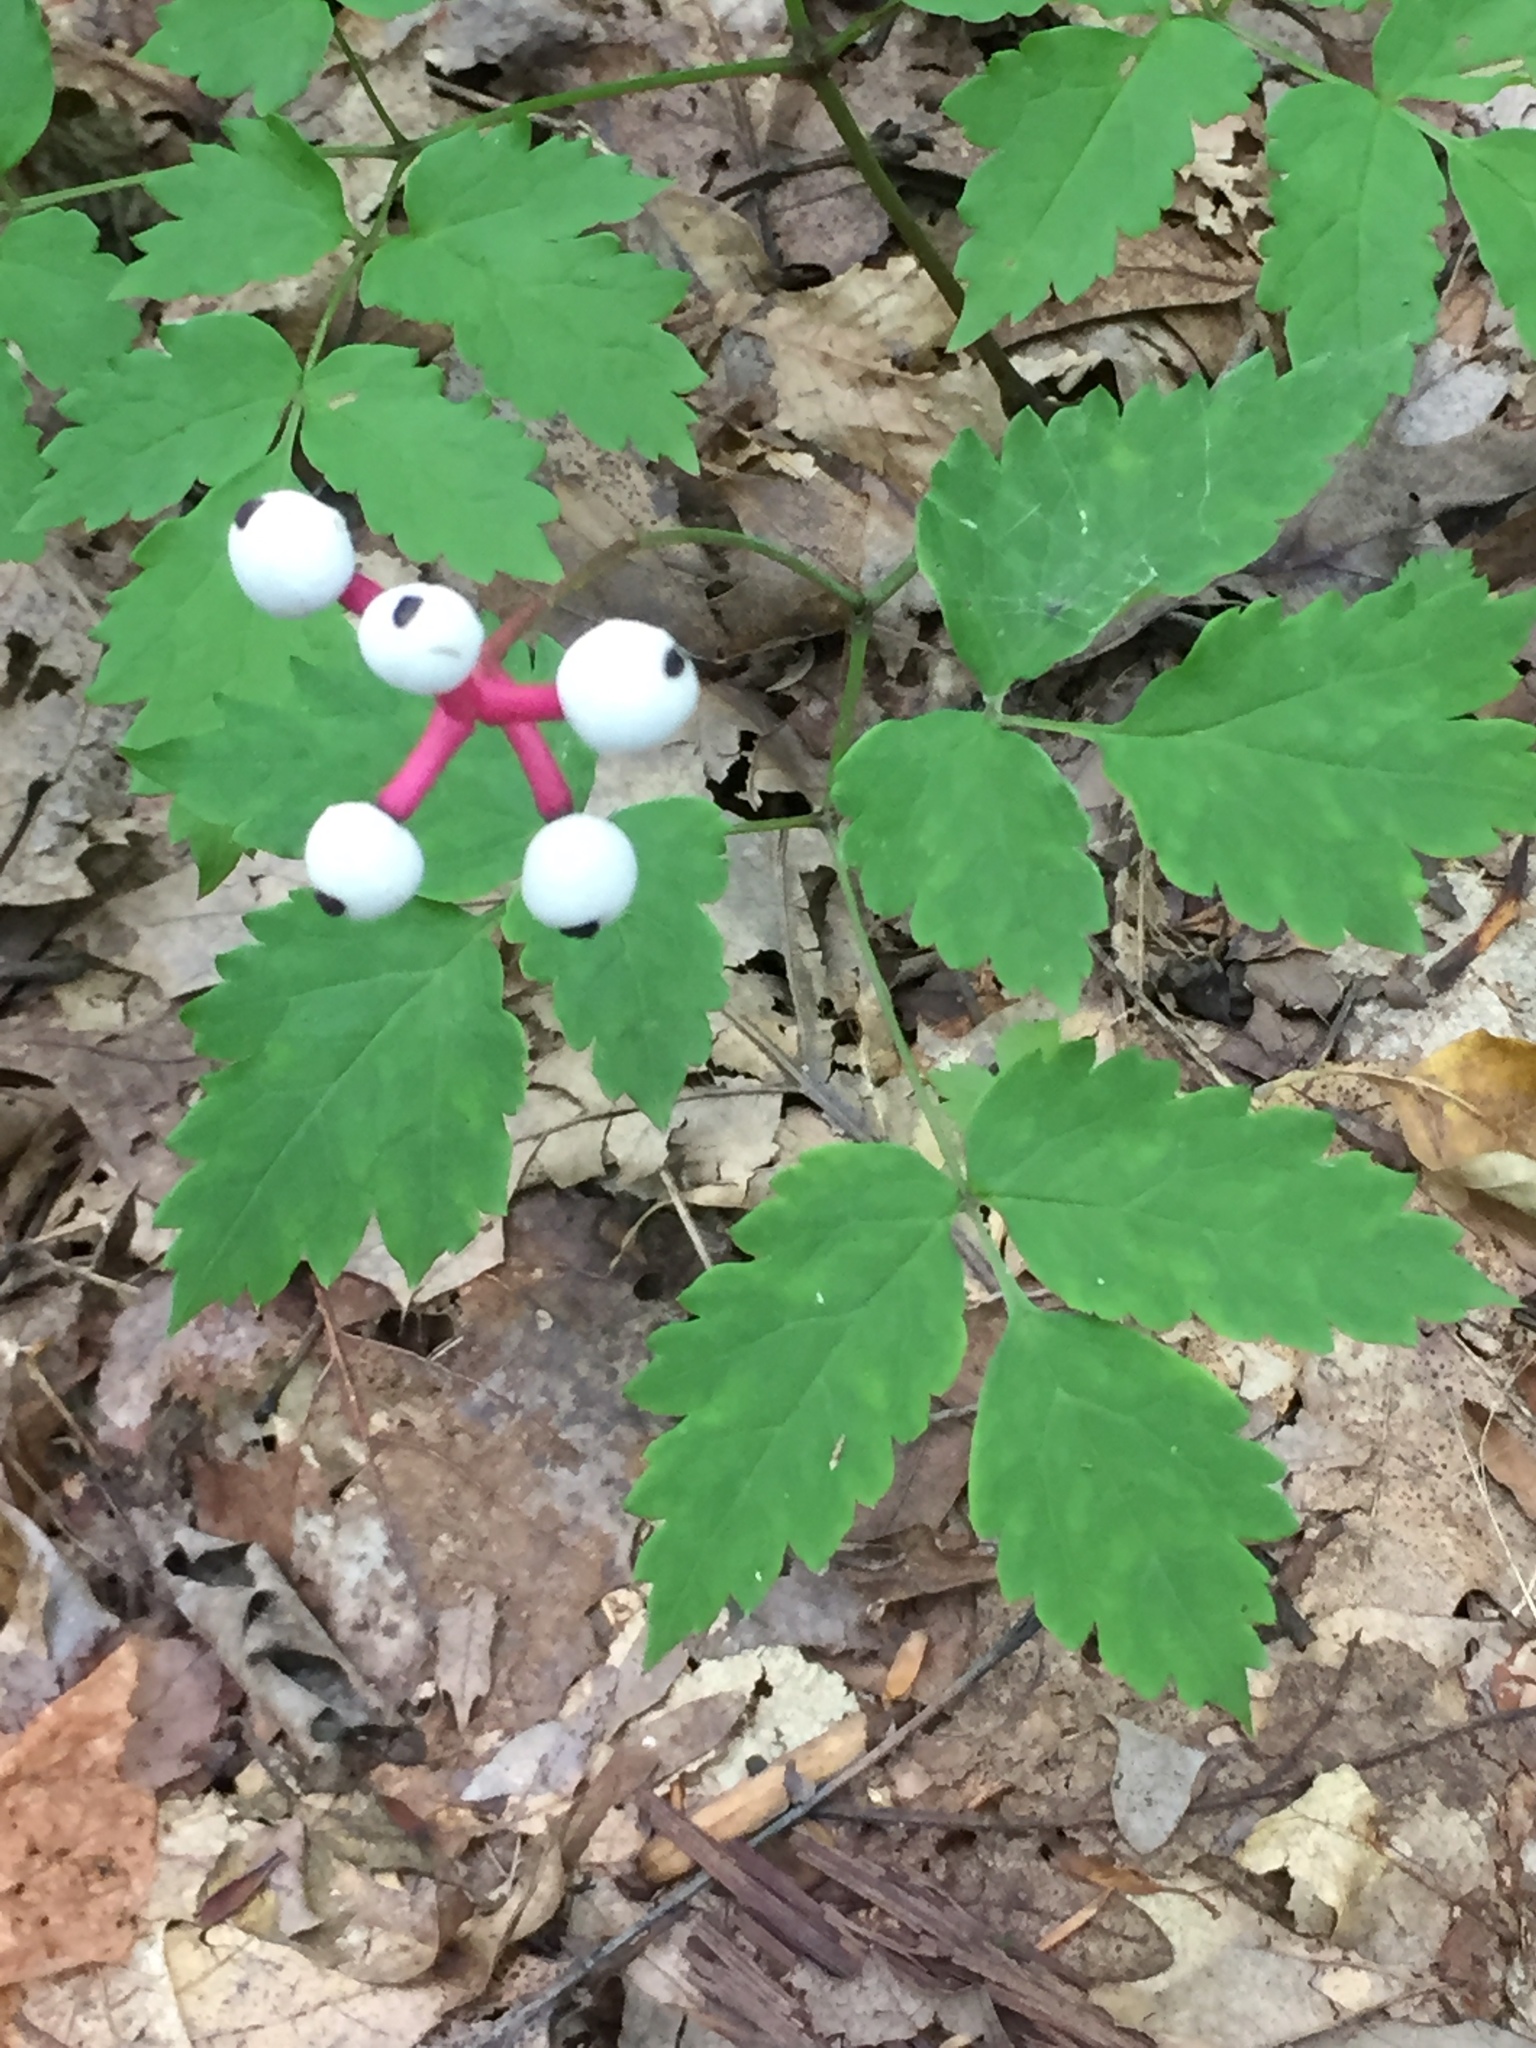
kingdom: Plantae
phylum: Tracheophyta
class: Magnoliopsida
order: Ranunculales
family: Ranunculaceae
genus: Actaea
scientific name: Actaea pachypoda
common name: Doll's-eyes
